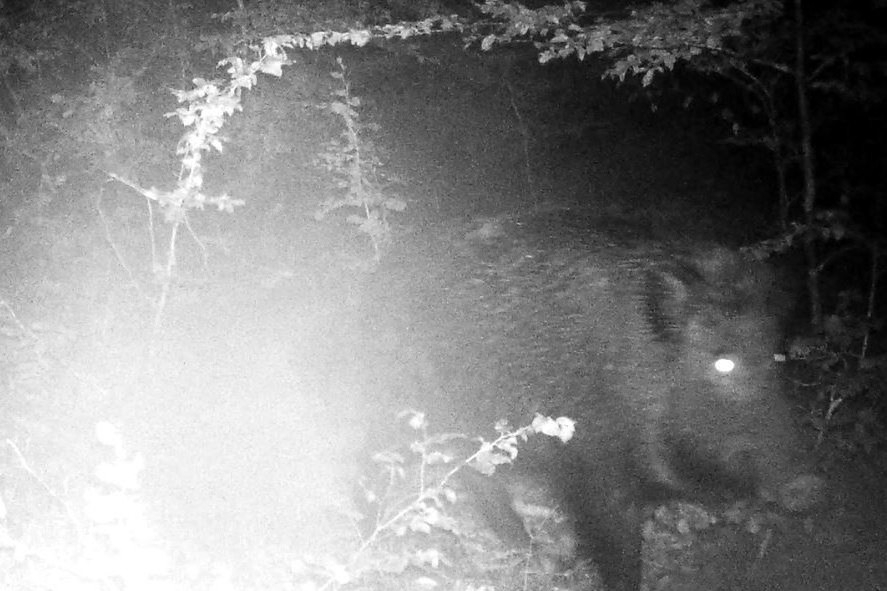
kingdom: Animalia
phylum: Chordata
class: Mammalia
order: Artiodactyla
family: Suidae
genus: Sus
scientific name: Sus scrofa
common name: Wild boar
